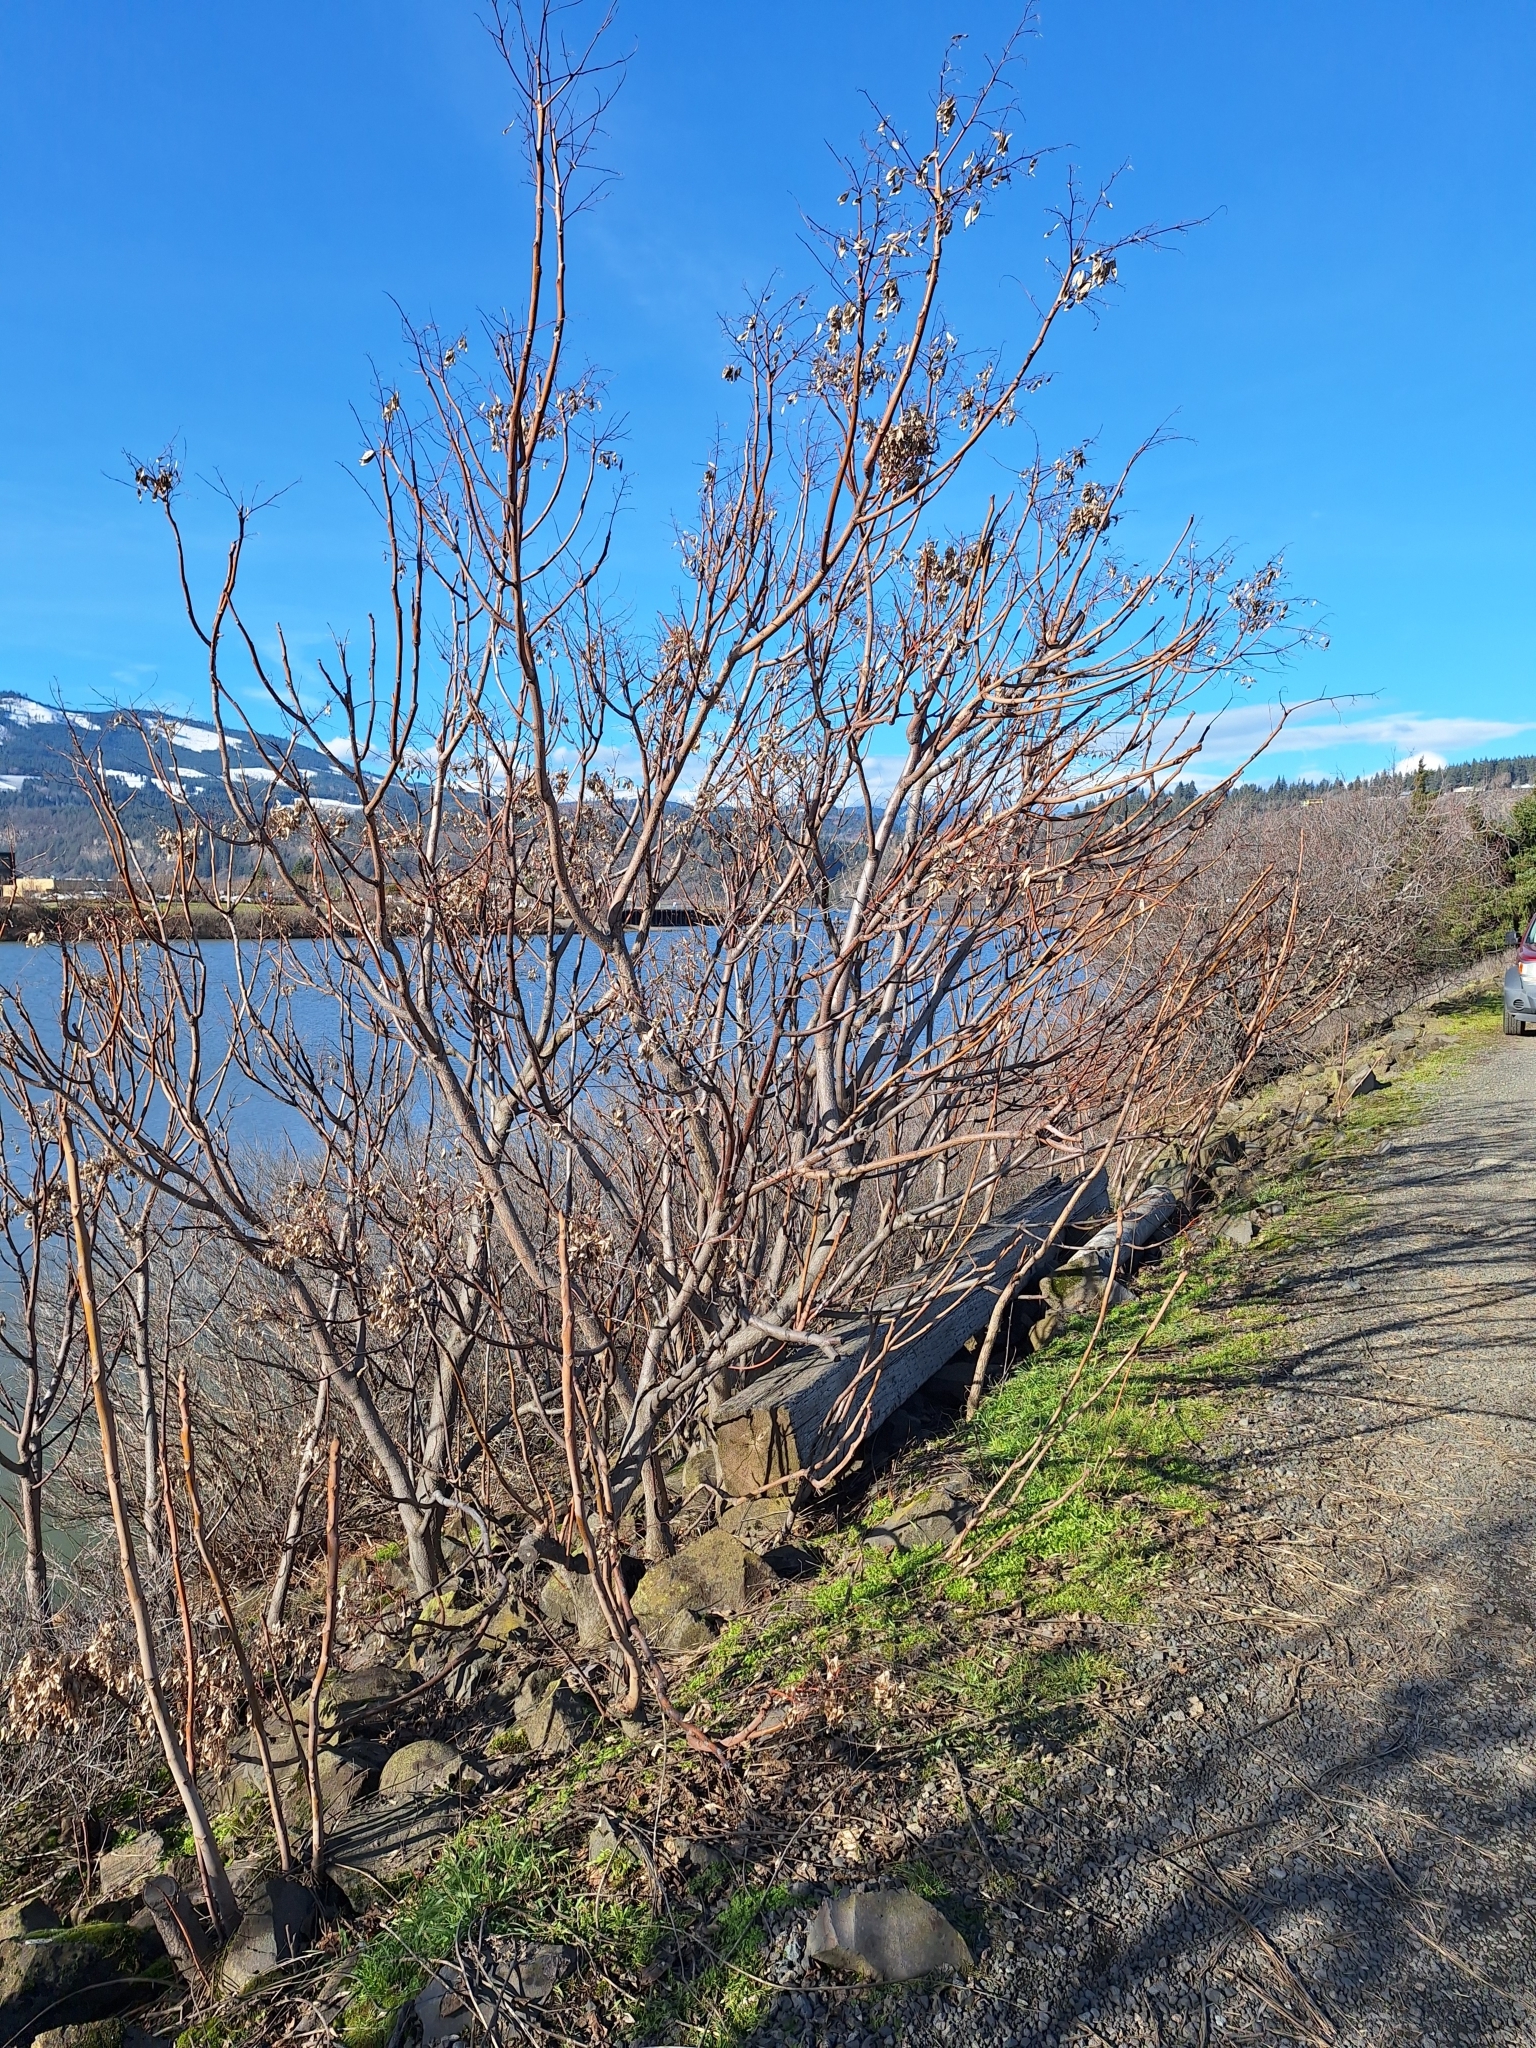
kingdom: Plantae
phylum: Tracheophyta
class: Magnoliopsida
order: Sapindales
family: Simaroubaceae
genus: Ailanthus
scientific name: Ailanthus altissima
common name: Tree-of-heaven
